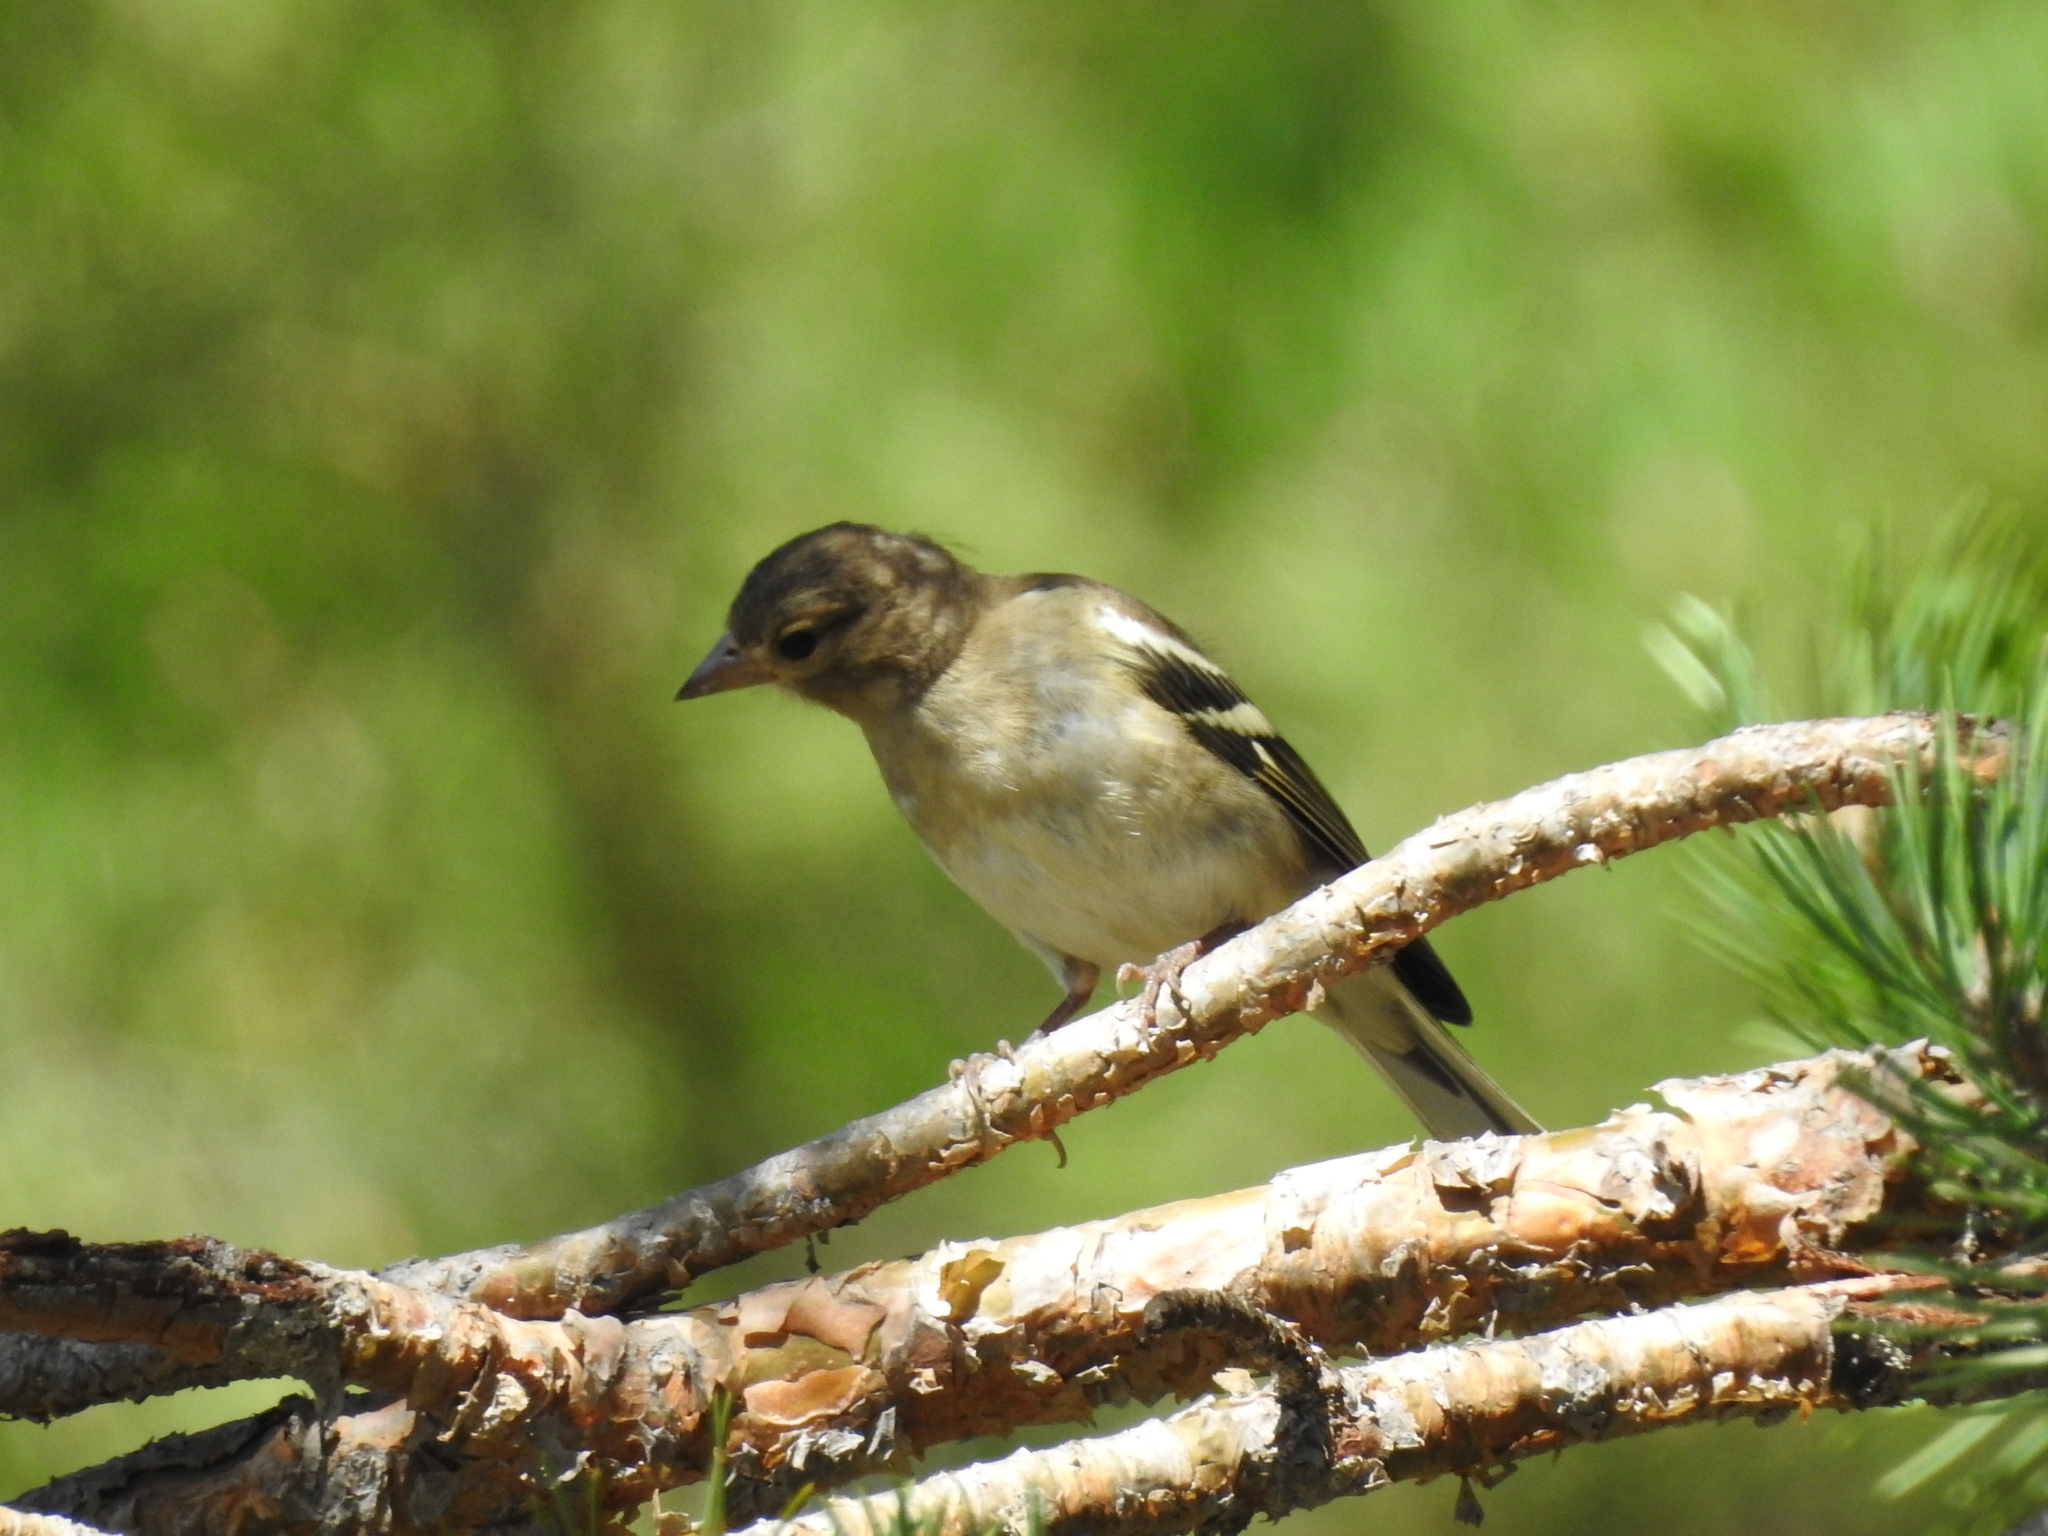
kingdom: Animalia
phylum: Chordata
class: Aves
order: Passeriformes
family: Fringillidae
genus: Fringilla
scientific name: Fringilla coelebs
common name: Common chaffinch
